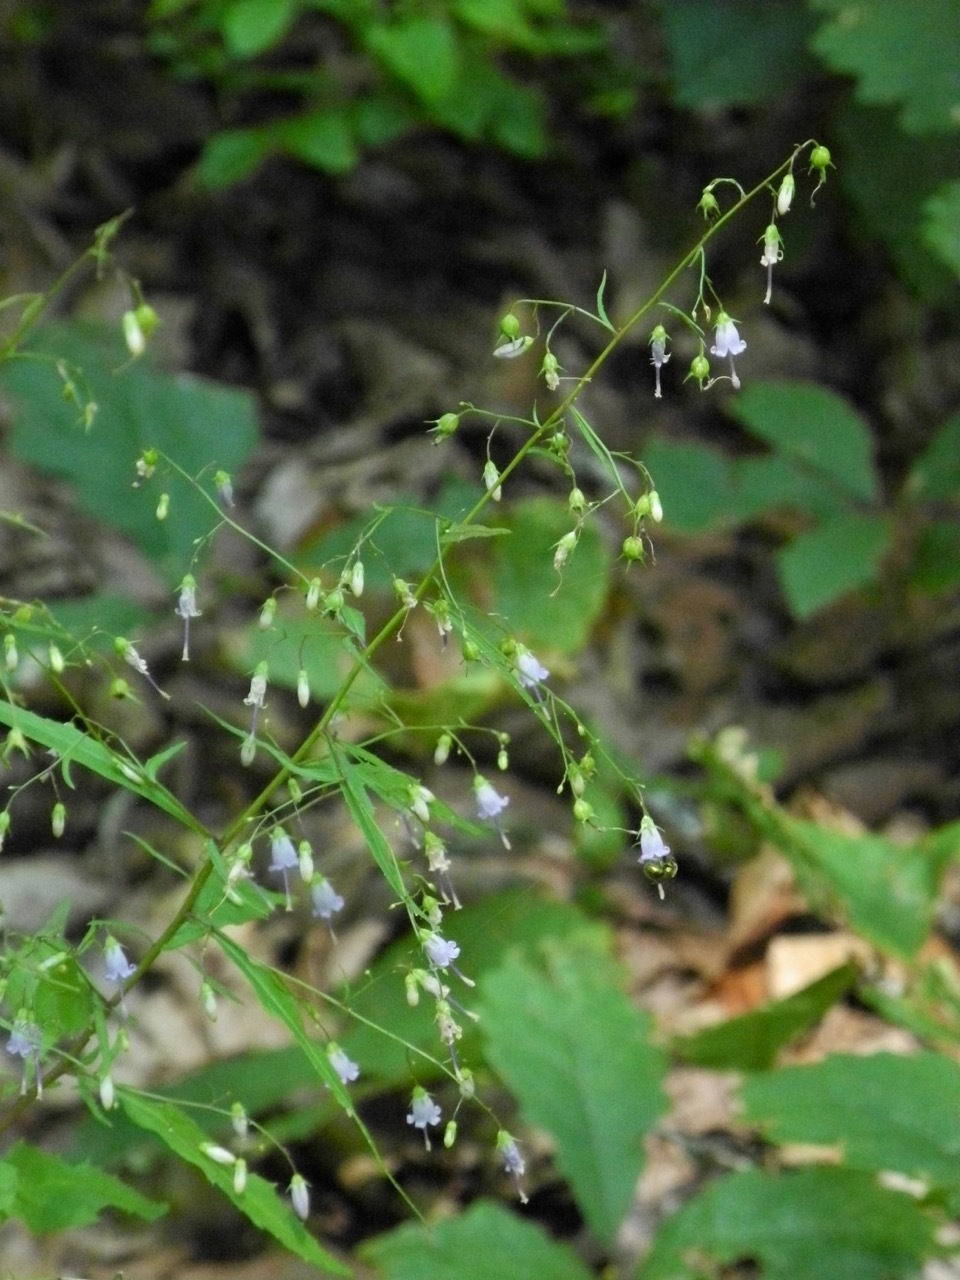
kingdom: Plantae
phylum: Tracheophyta
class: Magnoliopsida
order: Asterales
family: Campanulaceae
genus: Campanula
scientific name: Campanula divaricata
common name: Appalachian bellflower
